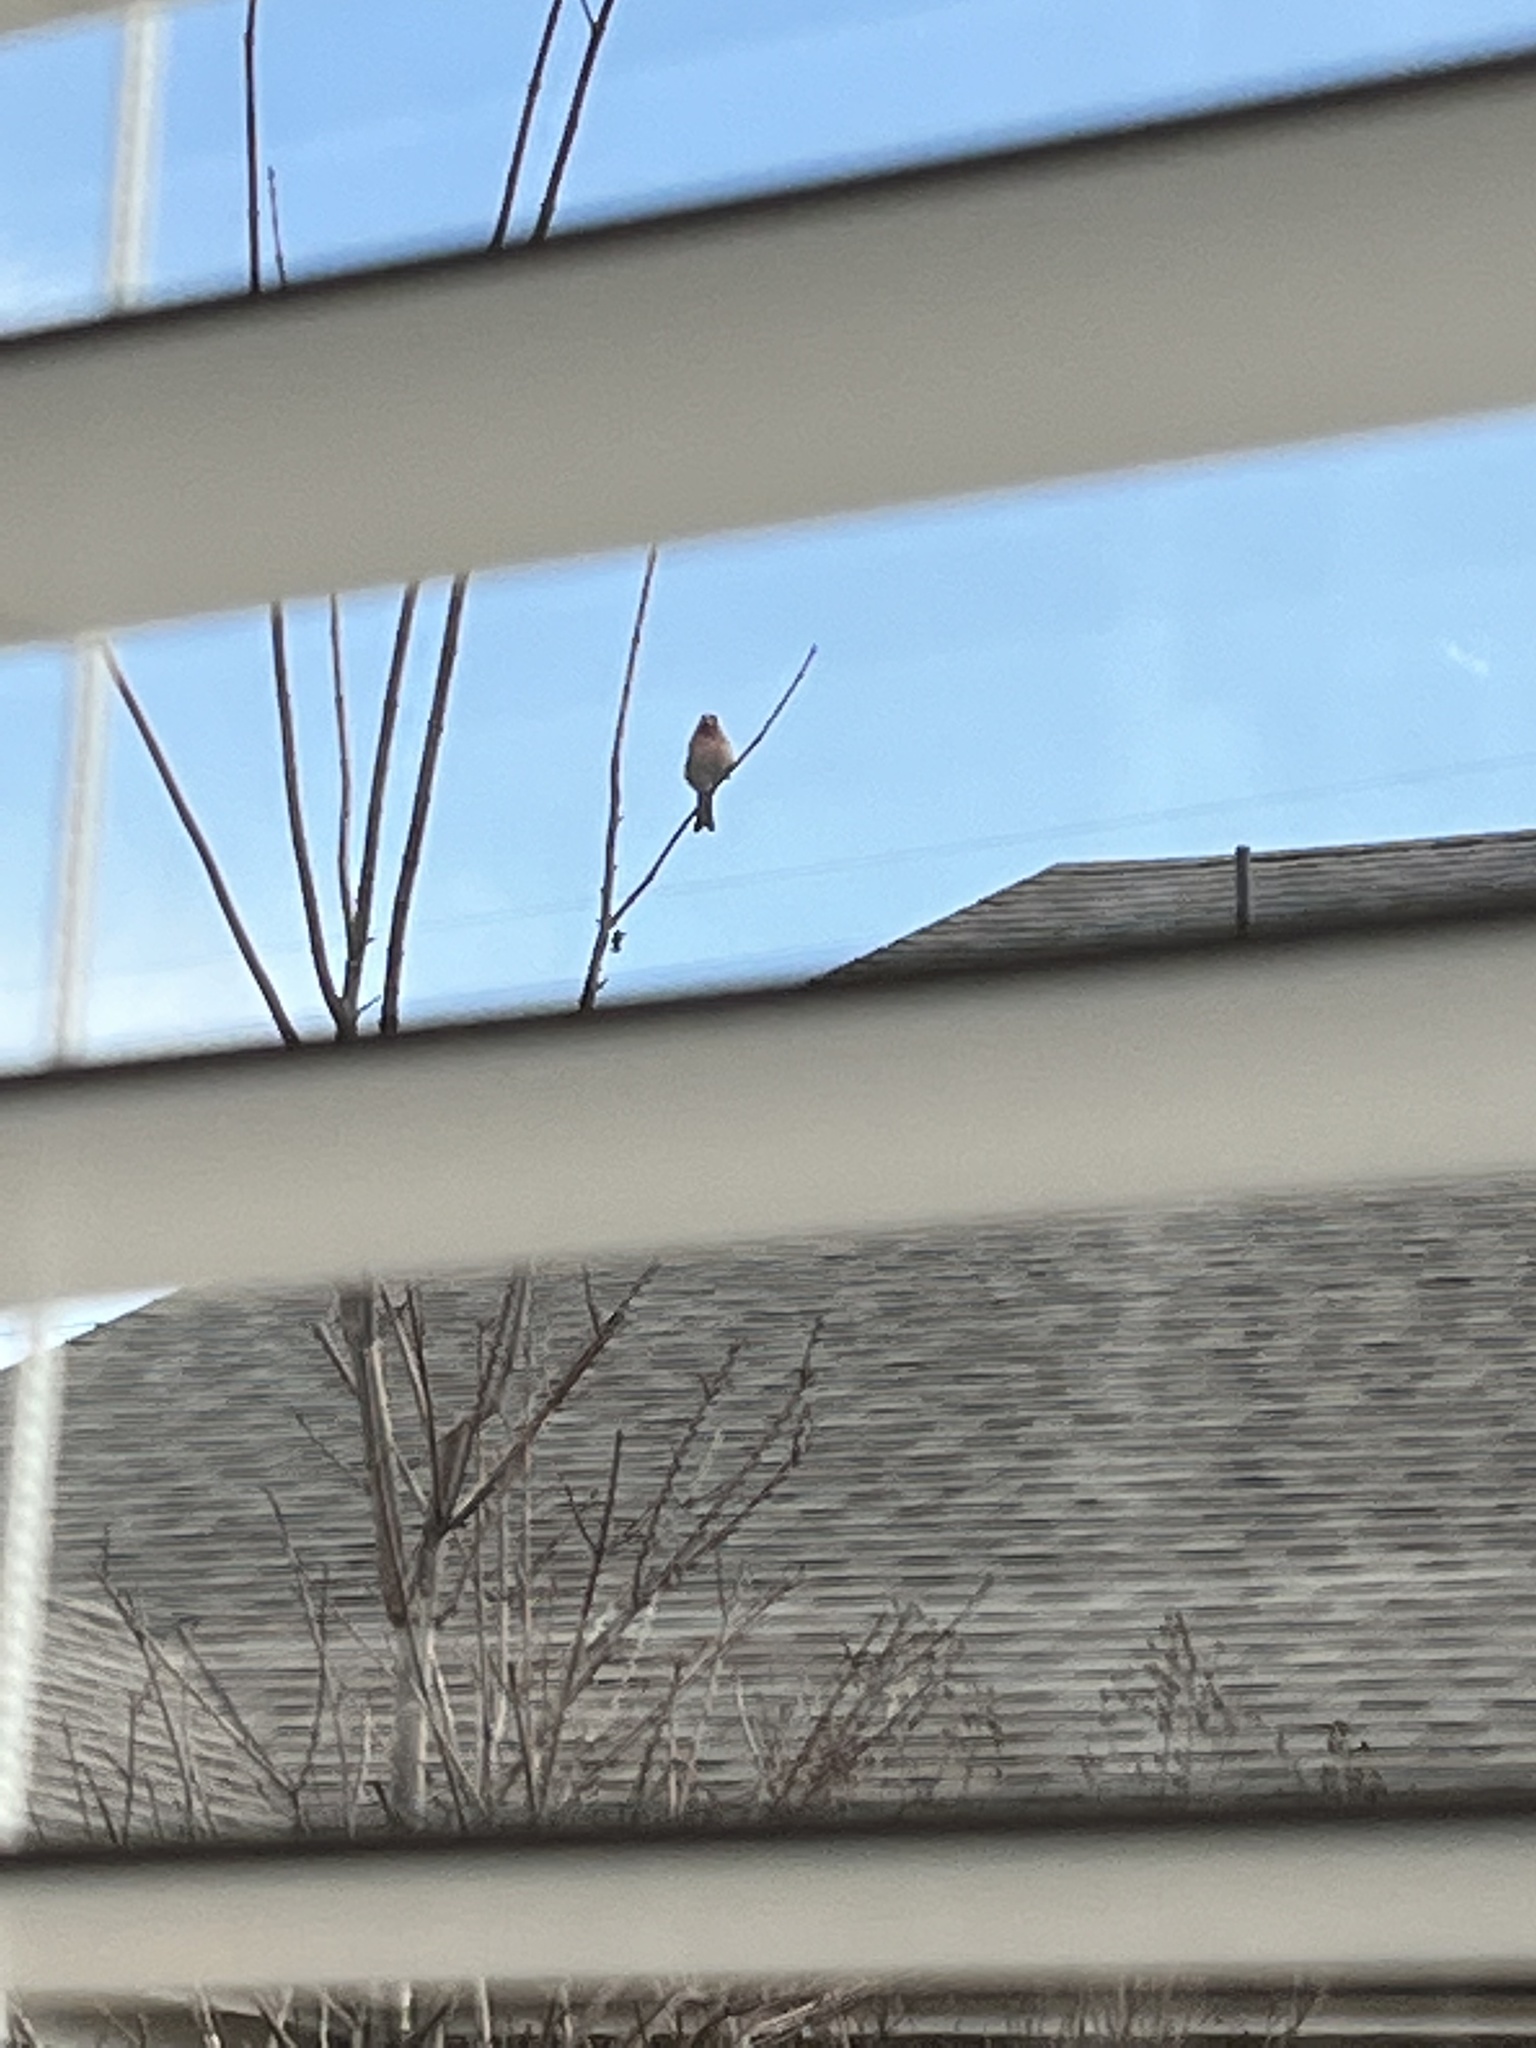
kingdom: Animalia
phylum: Chordata
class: Aves
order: Passeriformes
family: Fringillidae
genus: Haemorhous
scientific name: Haemorhous mexicanus
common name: House finch
